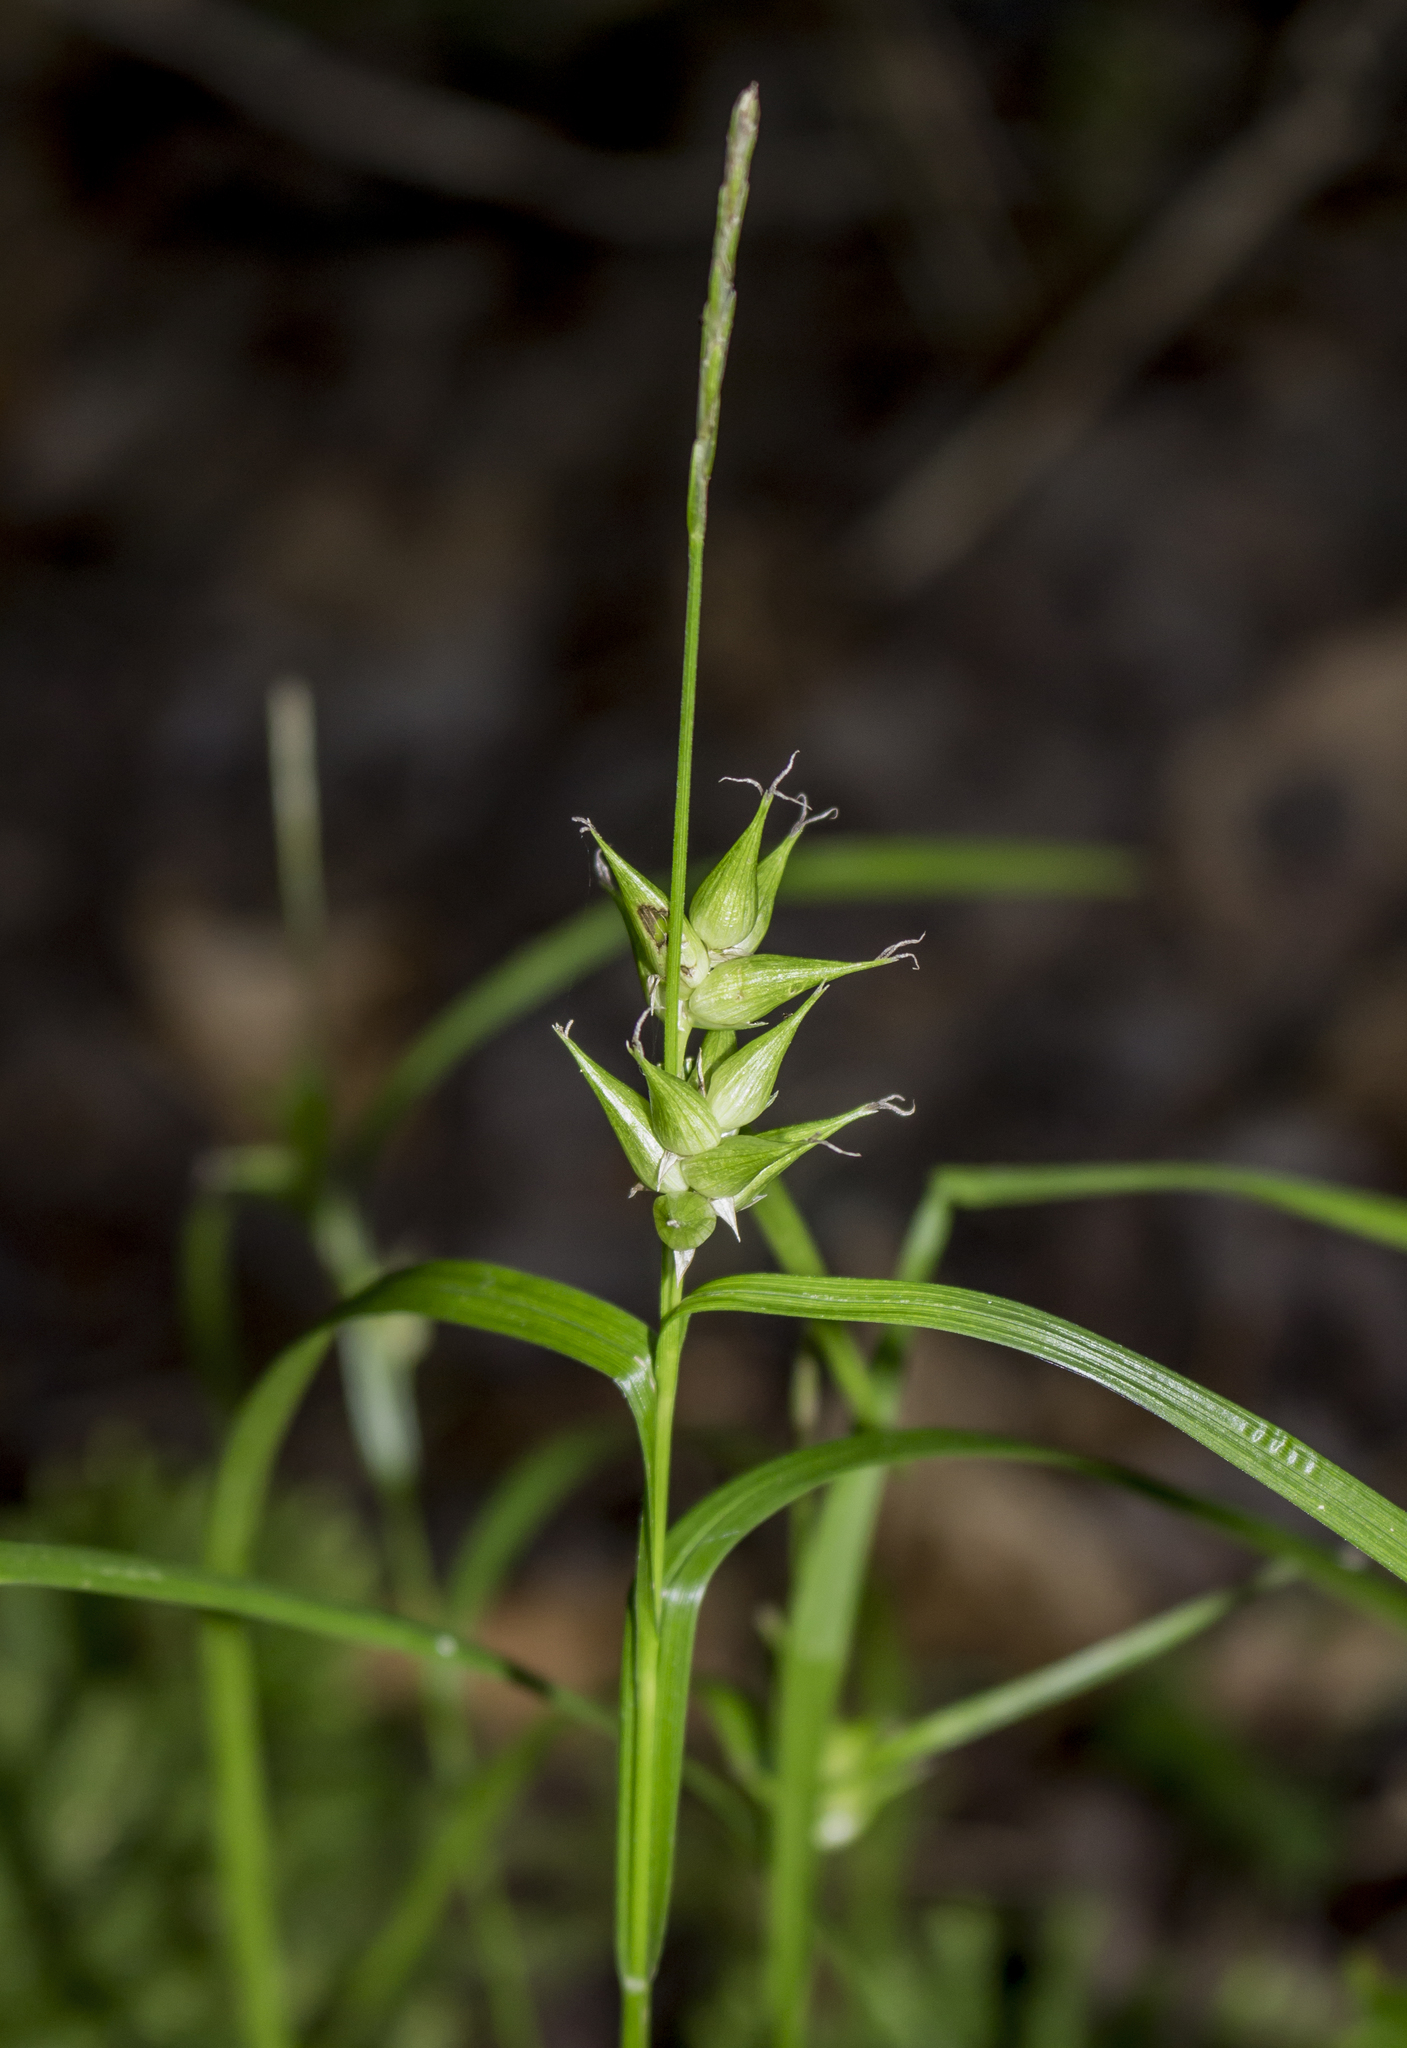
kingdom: Plantae
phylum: Tracheophyta
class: Liliopsida
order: Poales
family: Cyperaceae
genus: Carex
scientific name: Carex intumescens
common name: Greater bladder sedge
